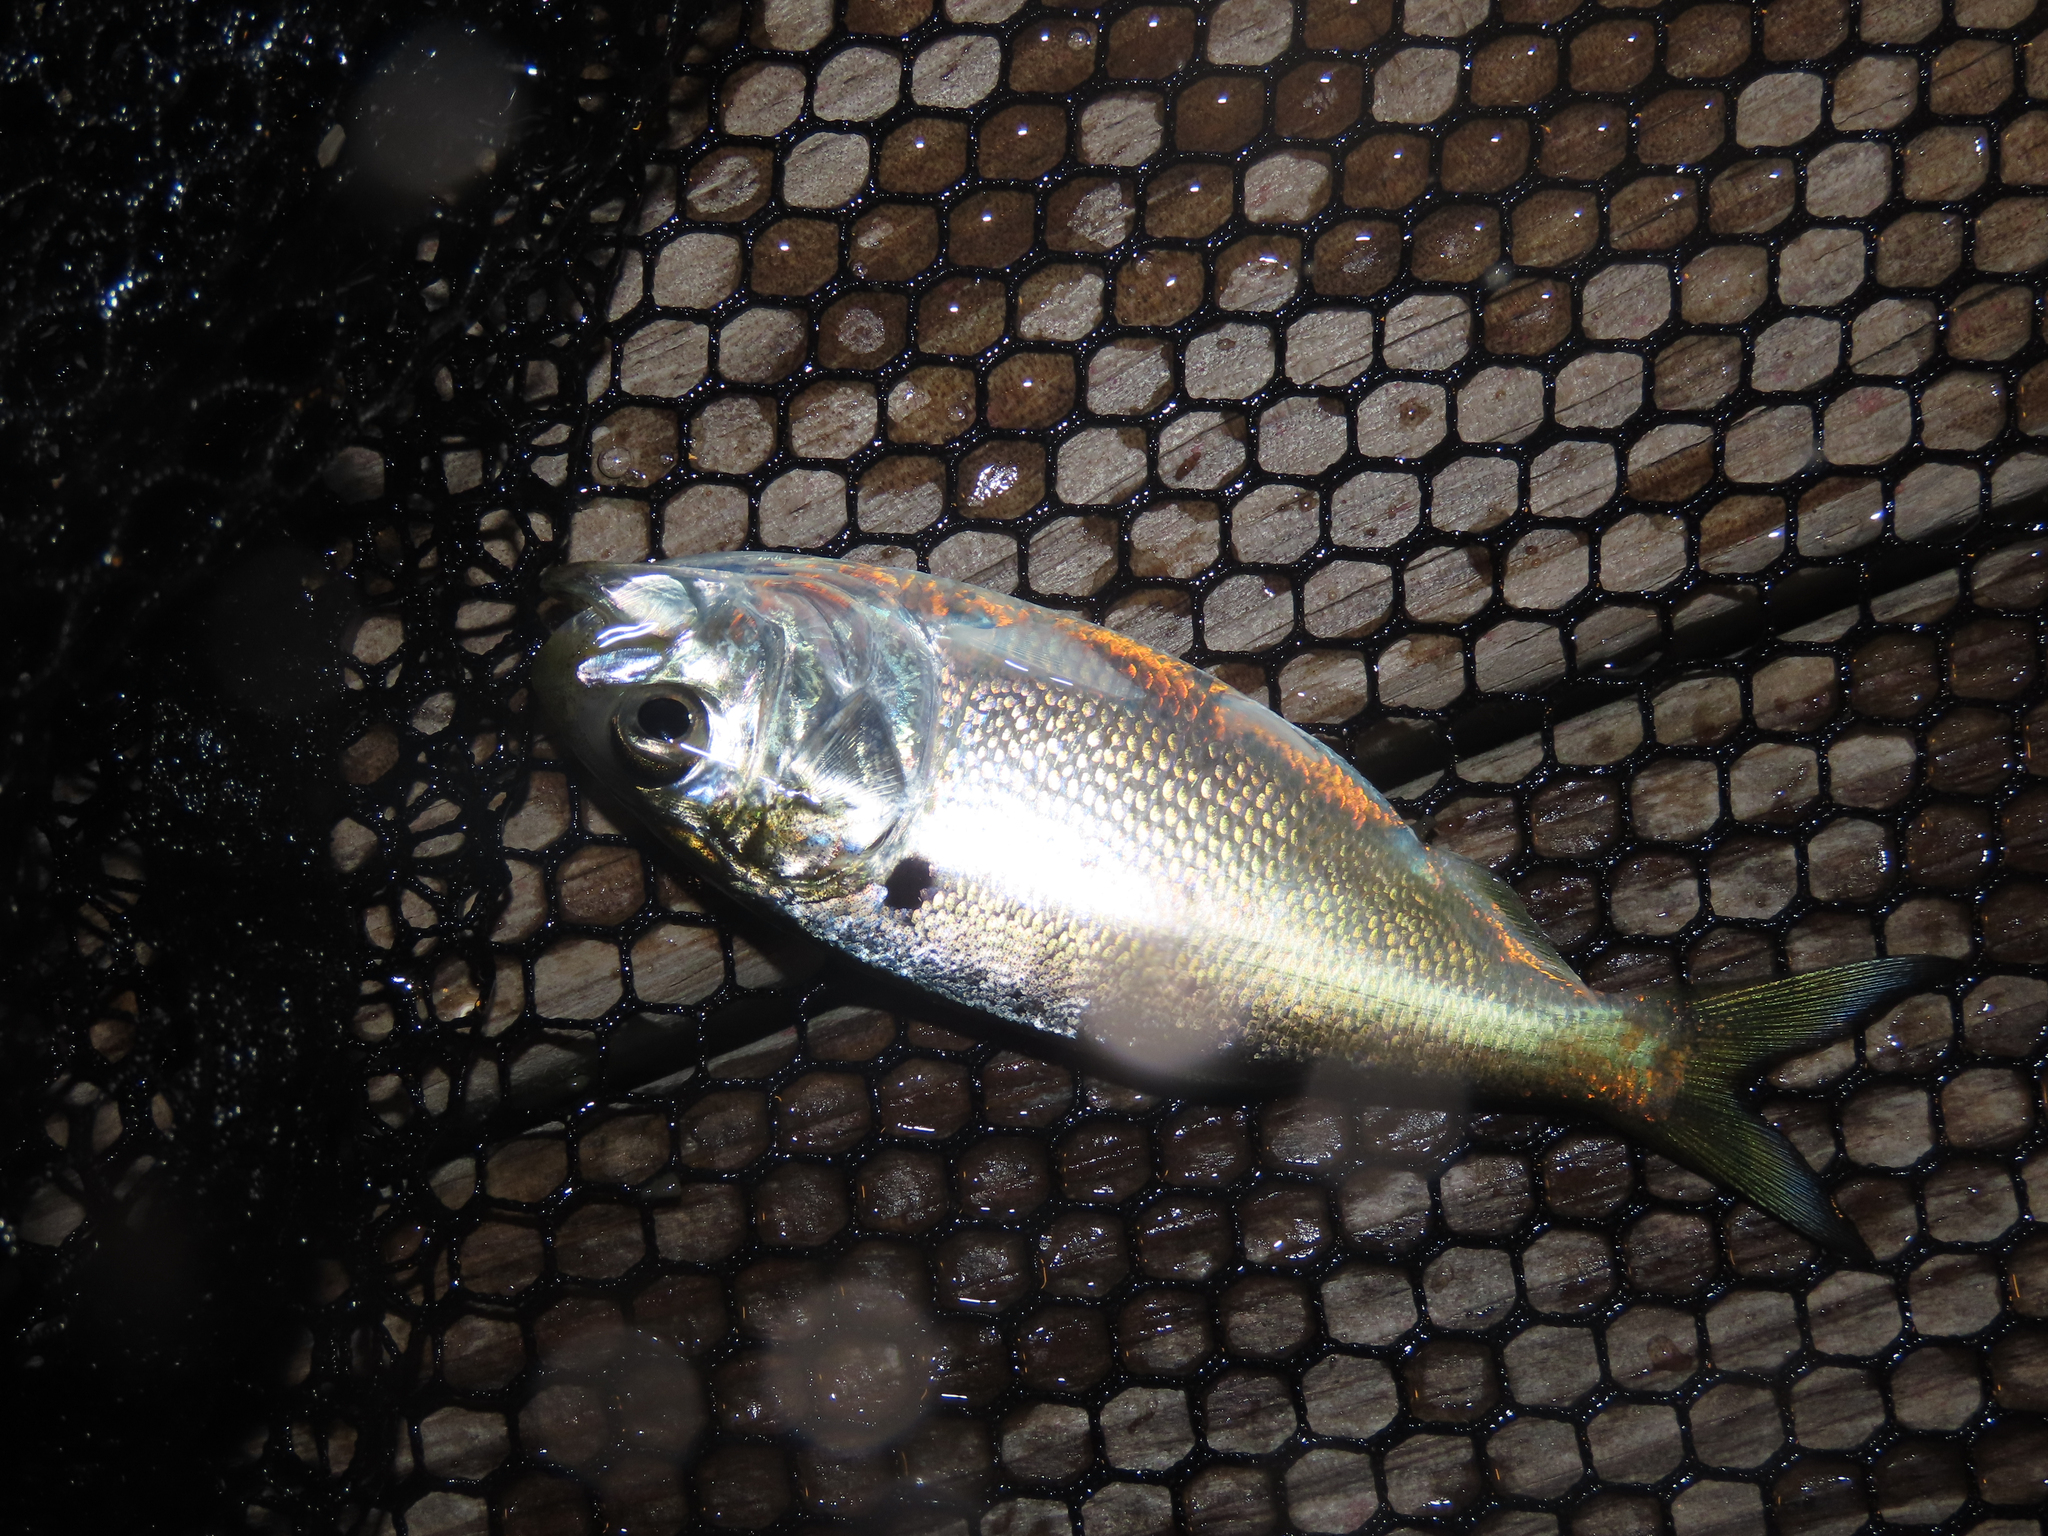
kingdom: Animalia
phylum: Chordata
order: Clupeiformes
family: Clupeidae
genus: Brevoortia
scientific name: Brevoortia tyrannus
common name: Atlantic menhaden
